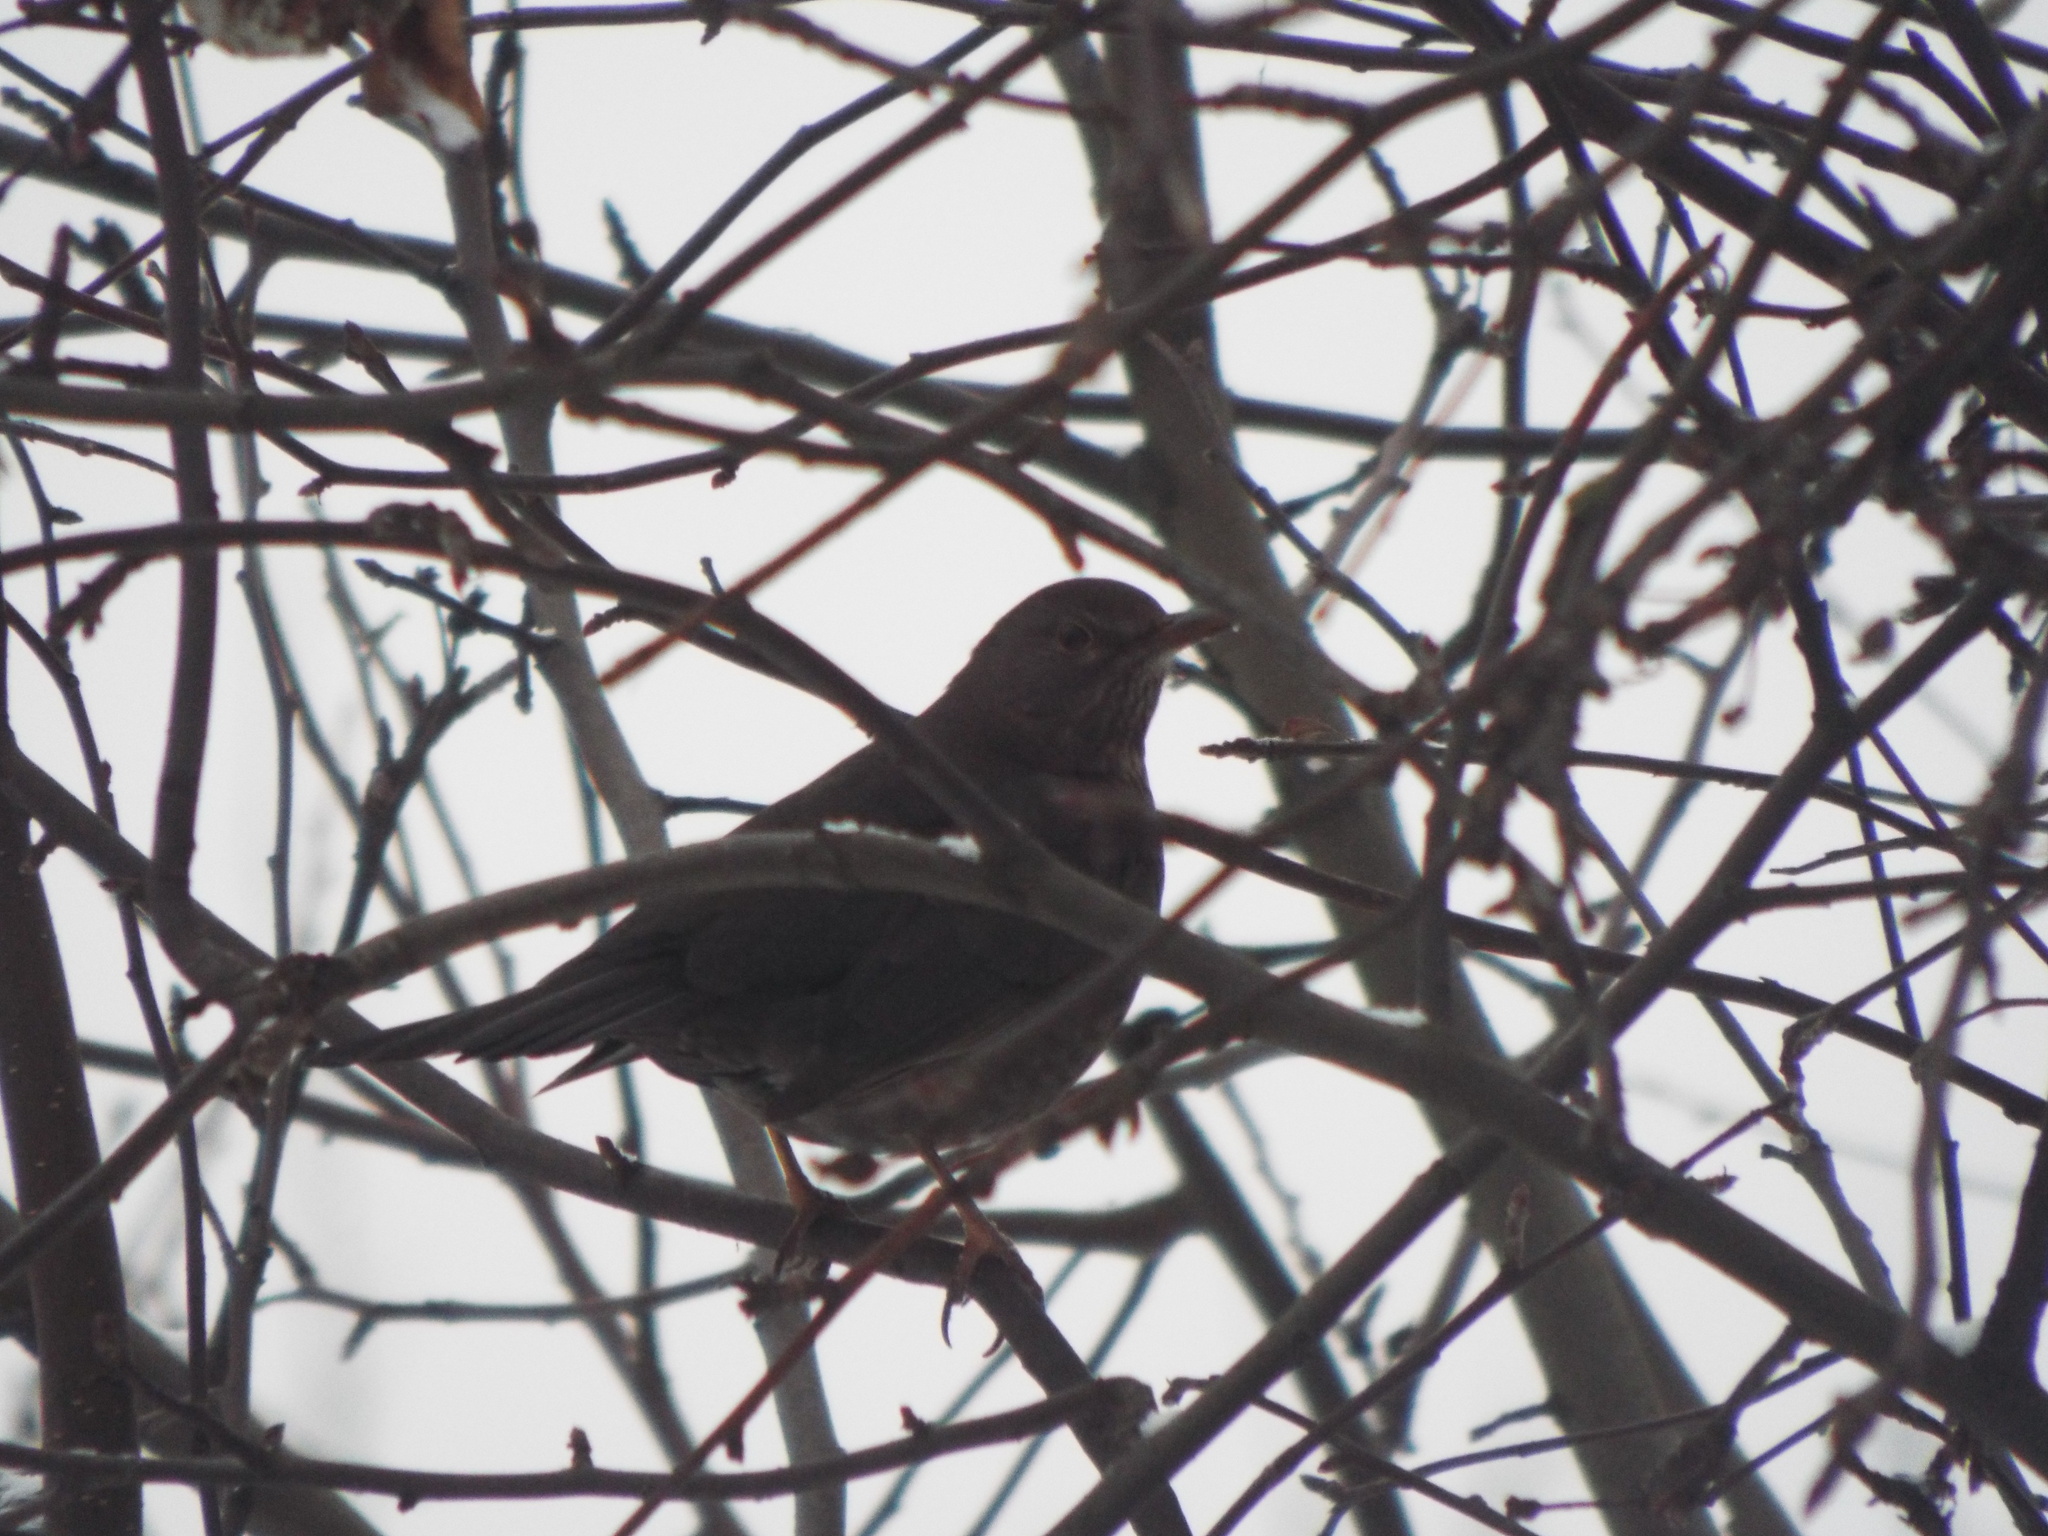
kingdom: Animalia
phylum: Chordata
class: Aves
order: Passeriformes
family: Turdidae
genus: Turdus
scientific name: Turdus merula
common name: Common blackbird
